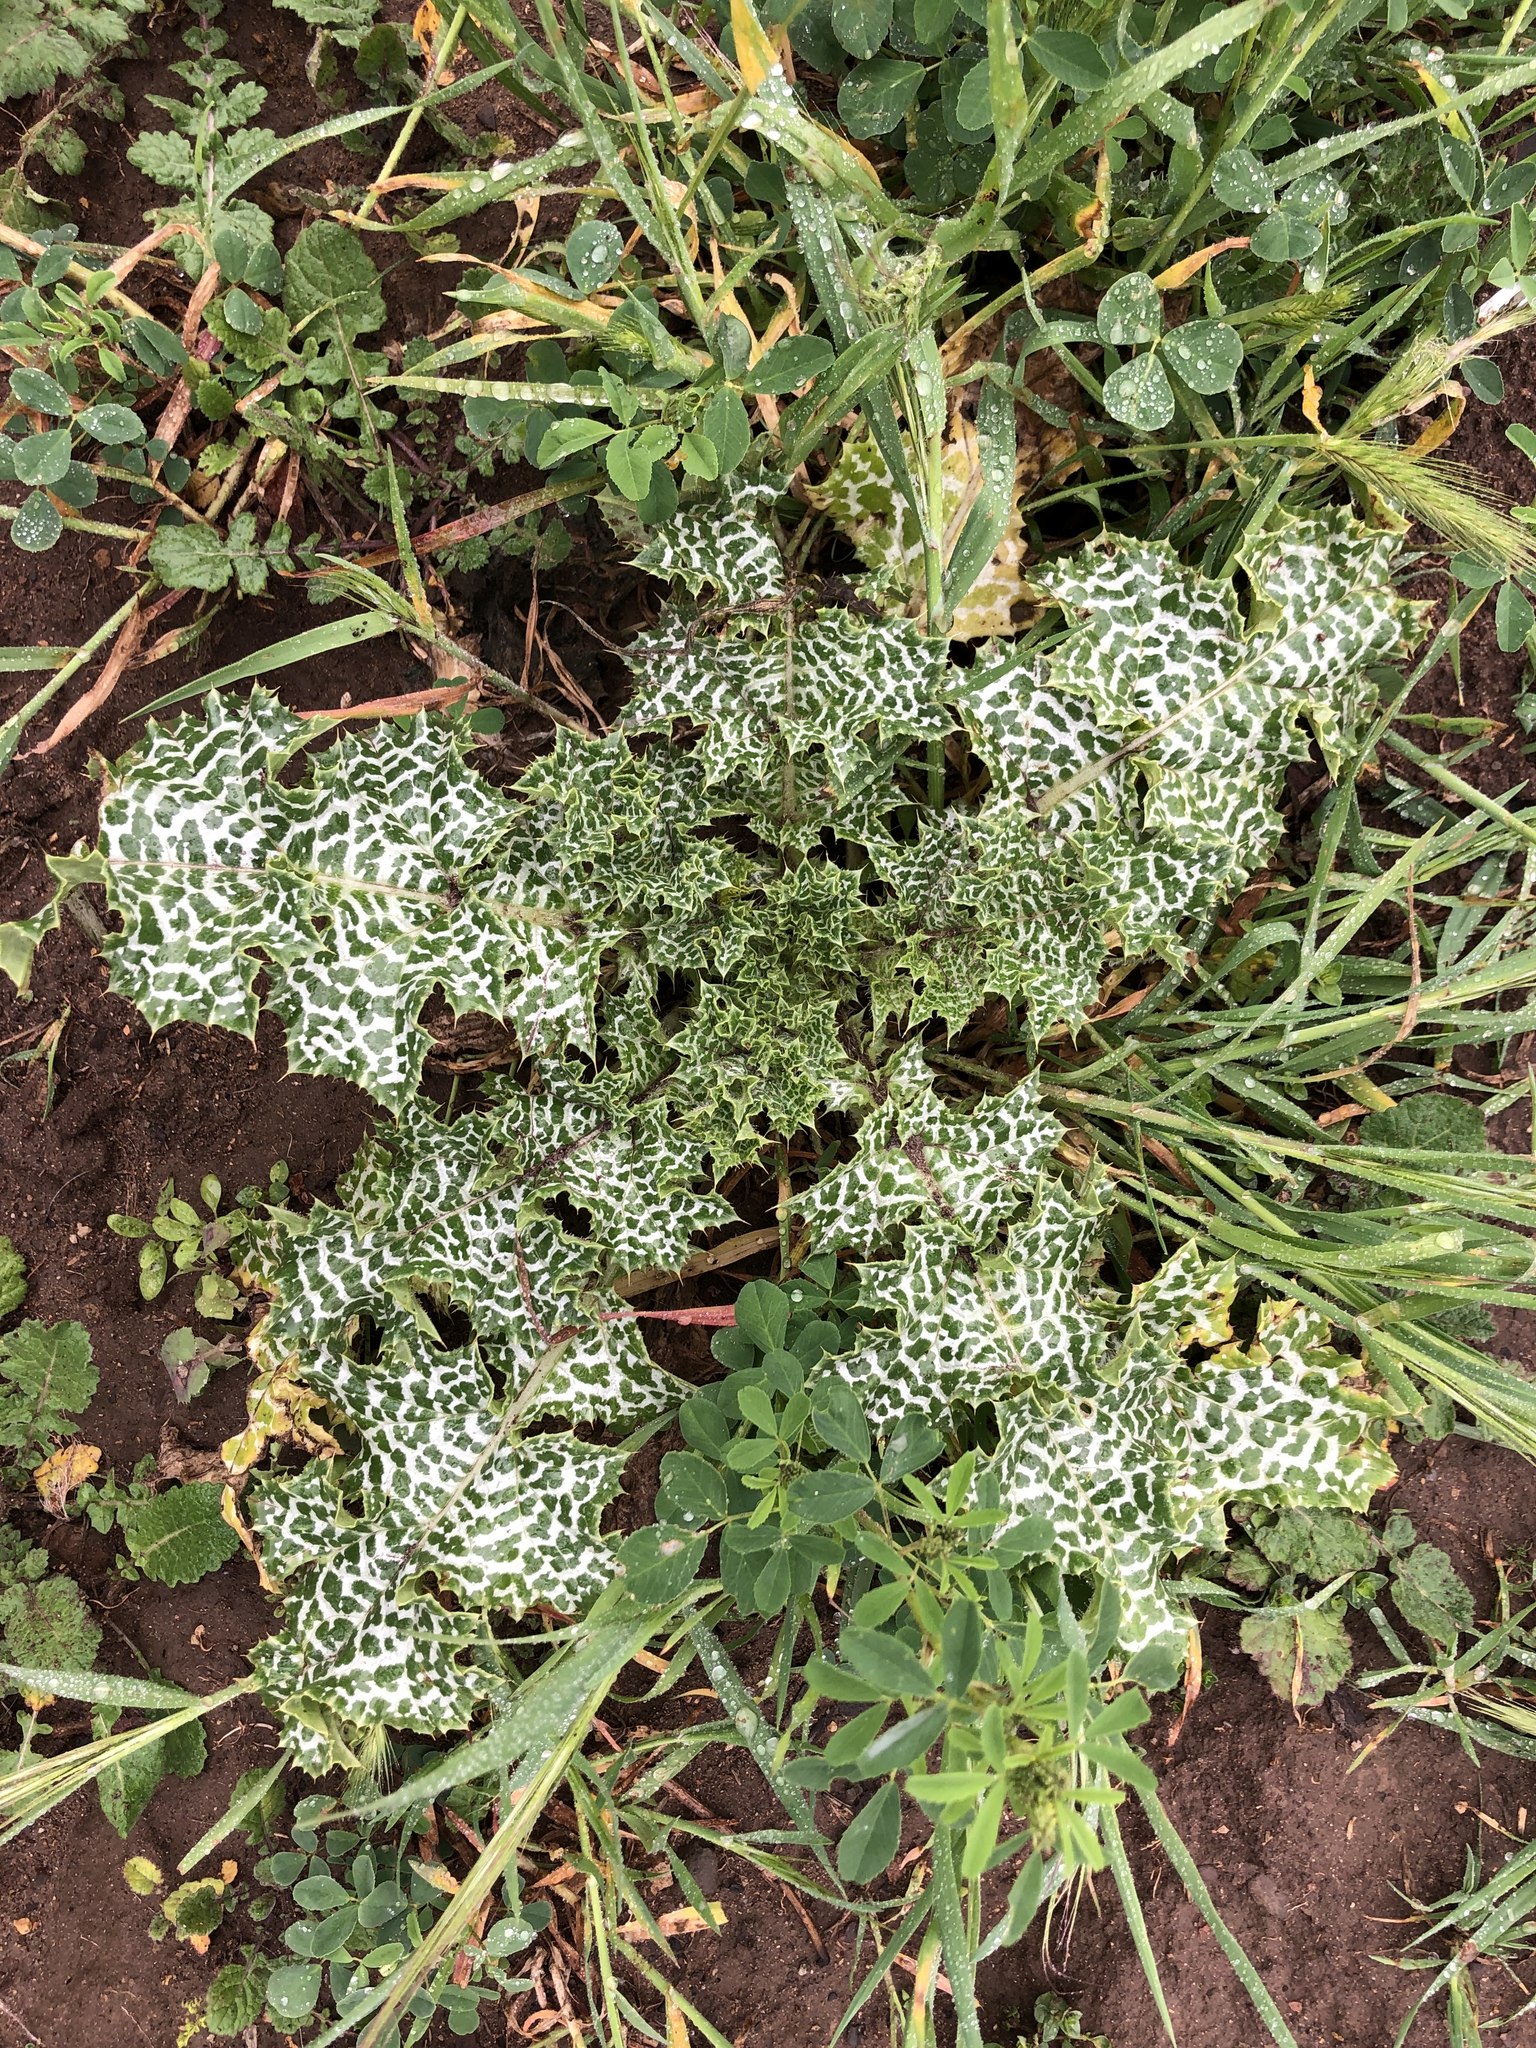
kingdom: Plantae
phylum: Tracheophyta
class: Magnoliopsida
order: Asterales
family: Asteraceae
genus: Silybum
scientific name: Silybum marianum
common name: Milk thistle
